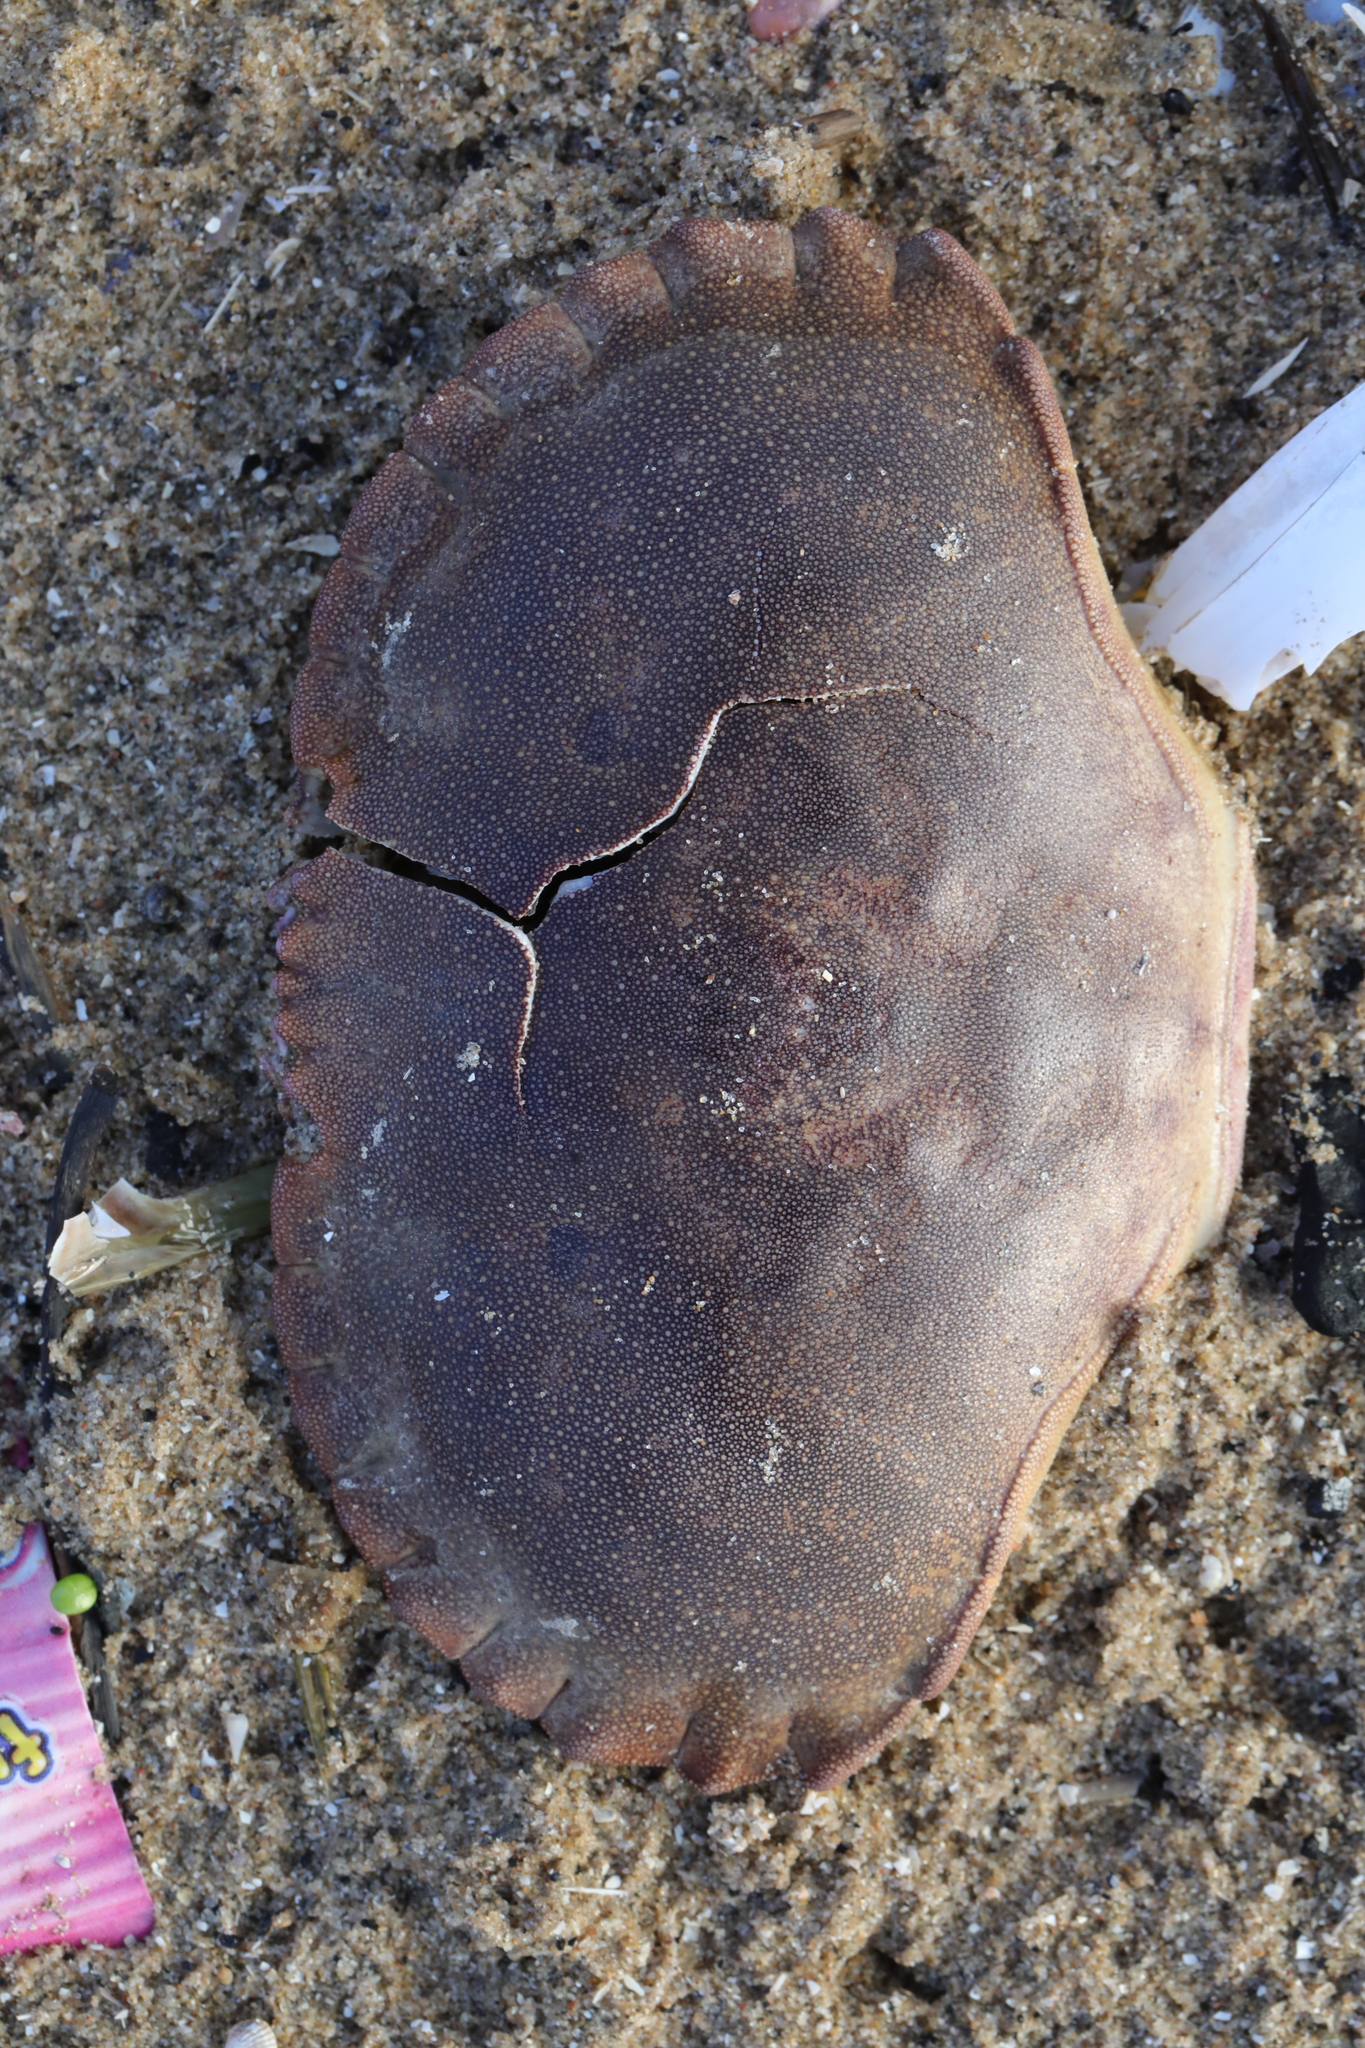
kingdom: Animalia
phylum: Arthropoda
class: Malacostraca
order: Decapoda
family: Cancridae
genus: Cancer
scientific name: Cancer pagurus
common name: Edible crab
